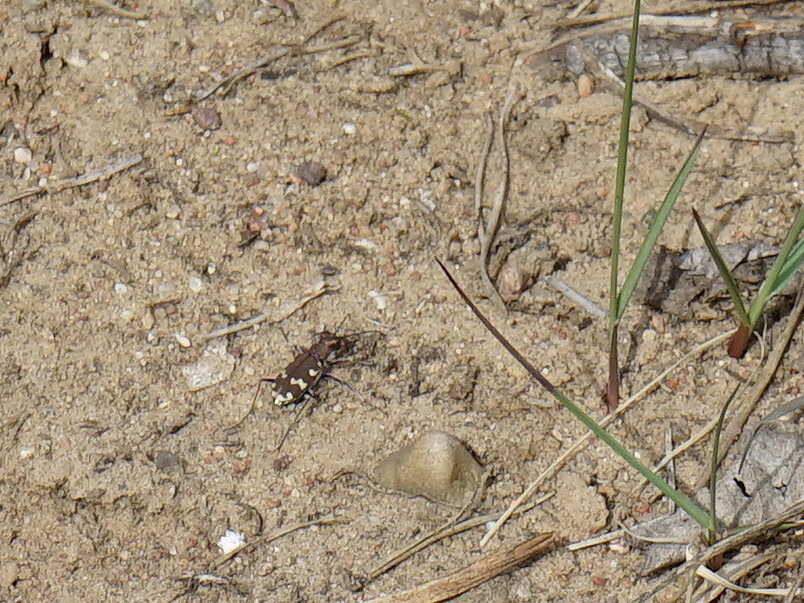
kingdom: Animalia
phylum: Arthropoda
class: Insecta
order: Coleoptera
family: Carabidae
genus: Cicindela
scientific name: Cicindela hybrida
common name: Northern dune tiger beetle
